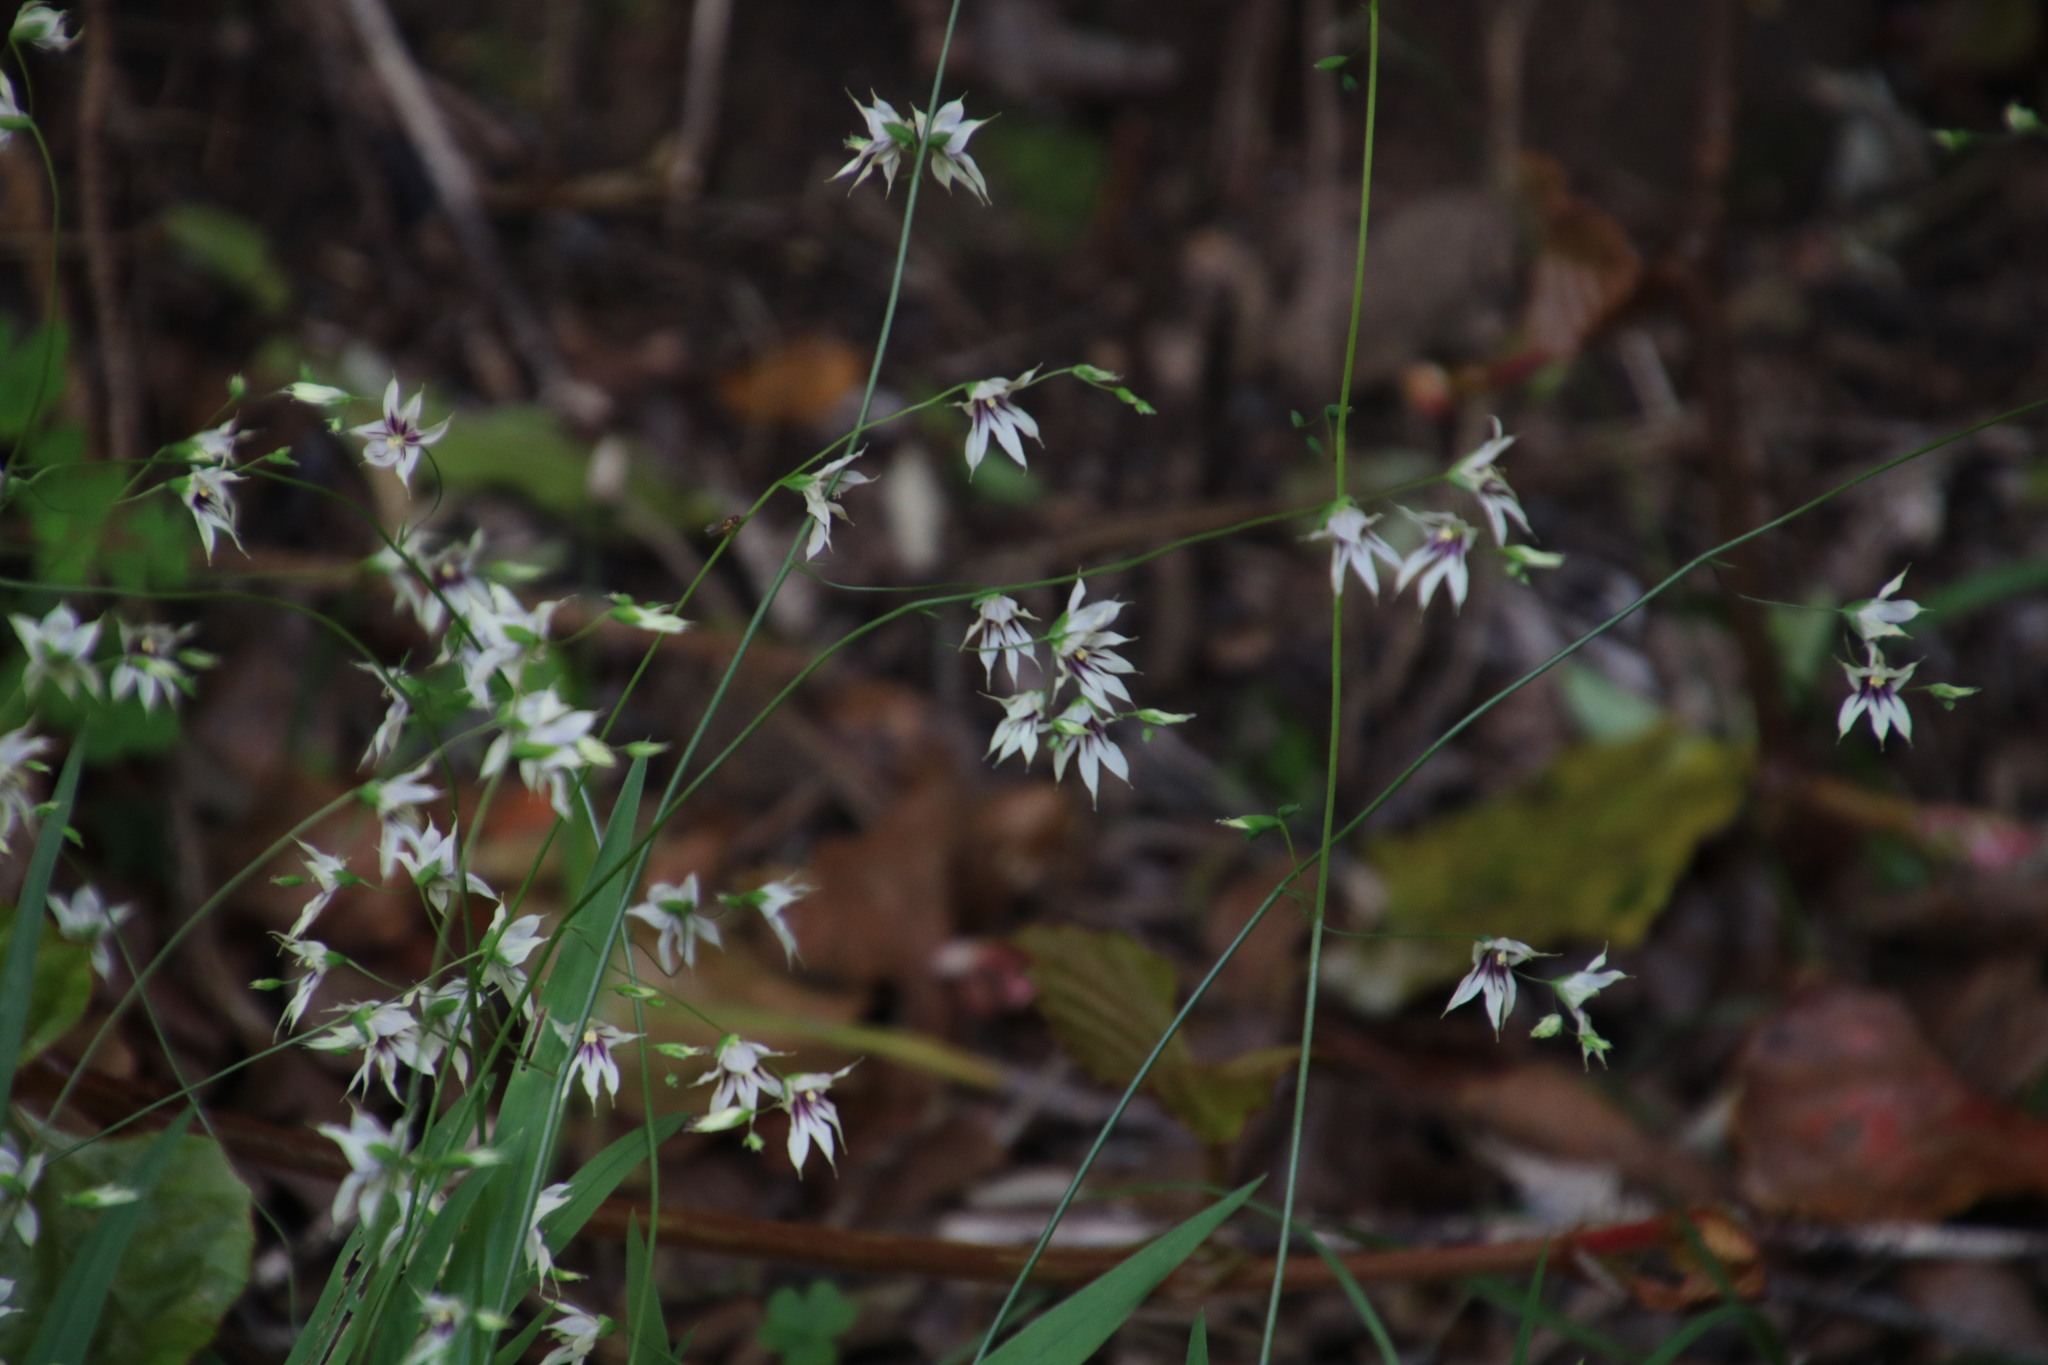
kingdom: Plantae
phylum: Tracheophyta
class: Liliopsida
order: Asparagales
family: Iridaceae
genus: Melasphaerula
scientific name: Melasphaerula graminea
